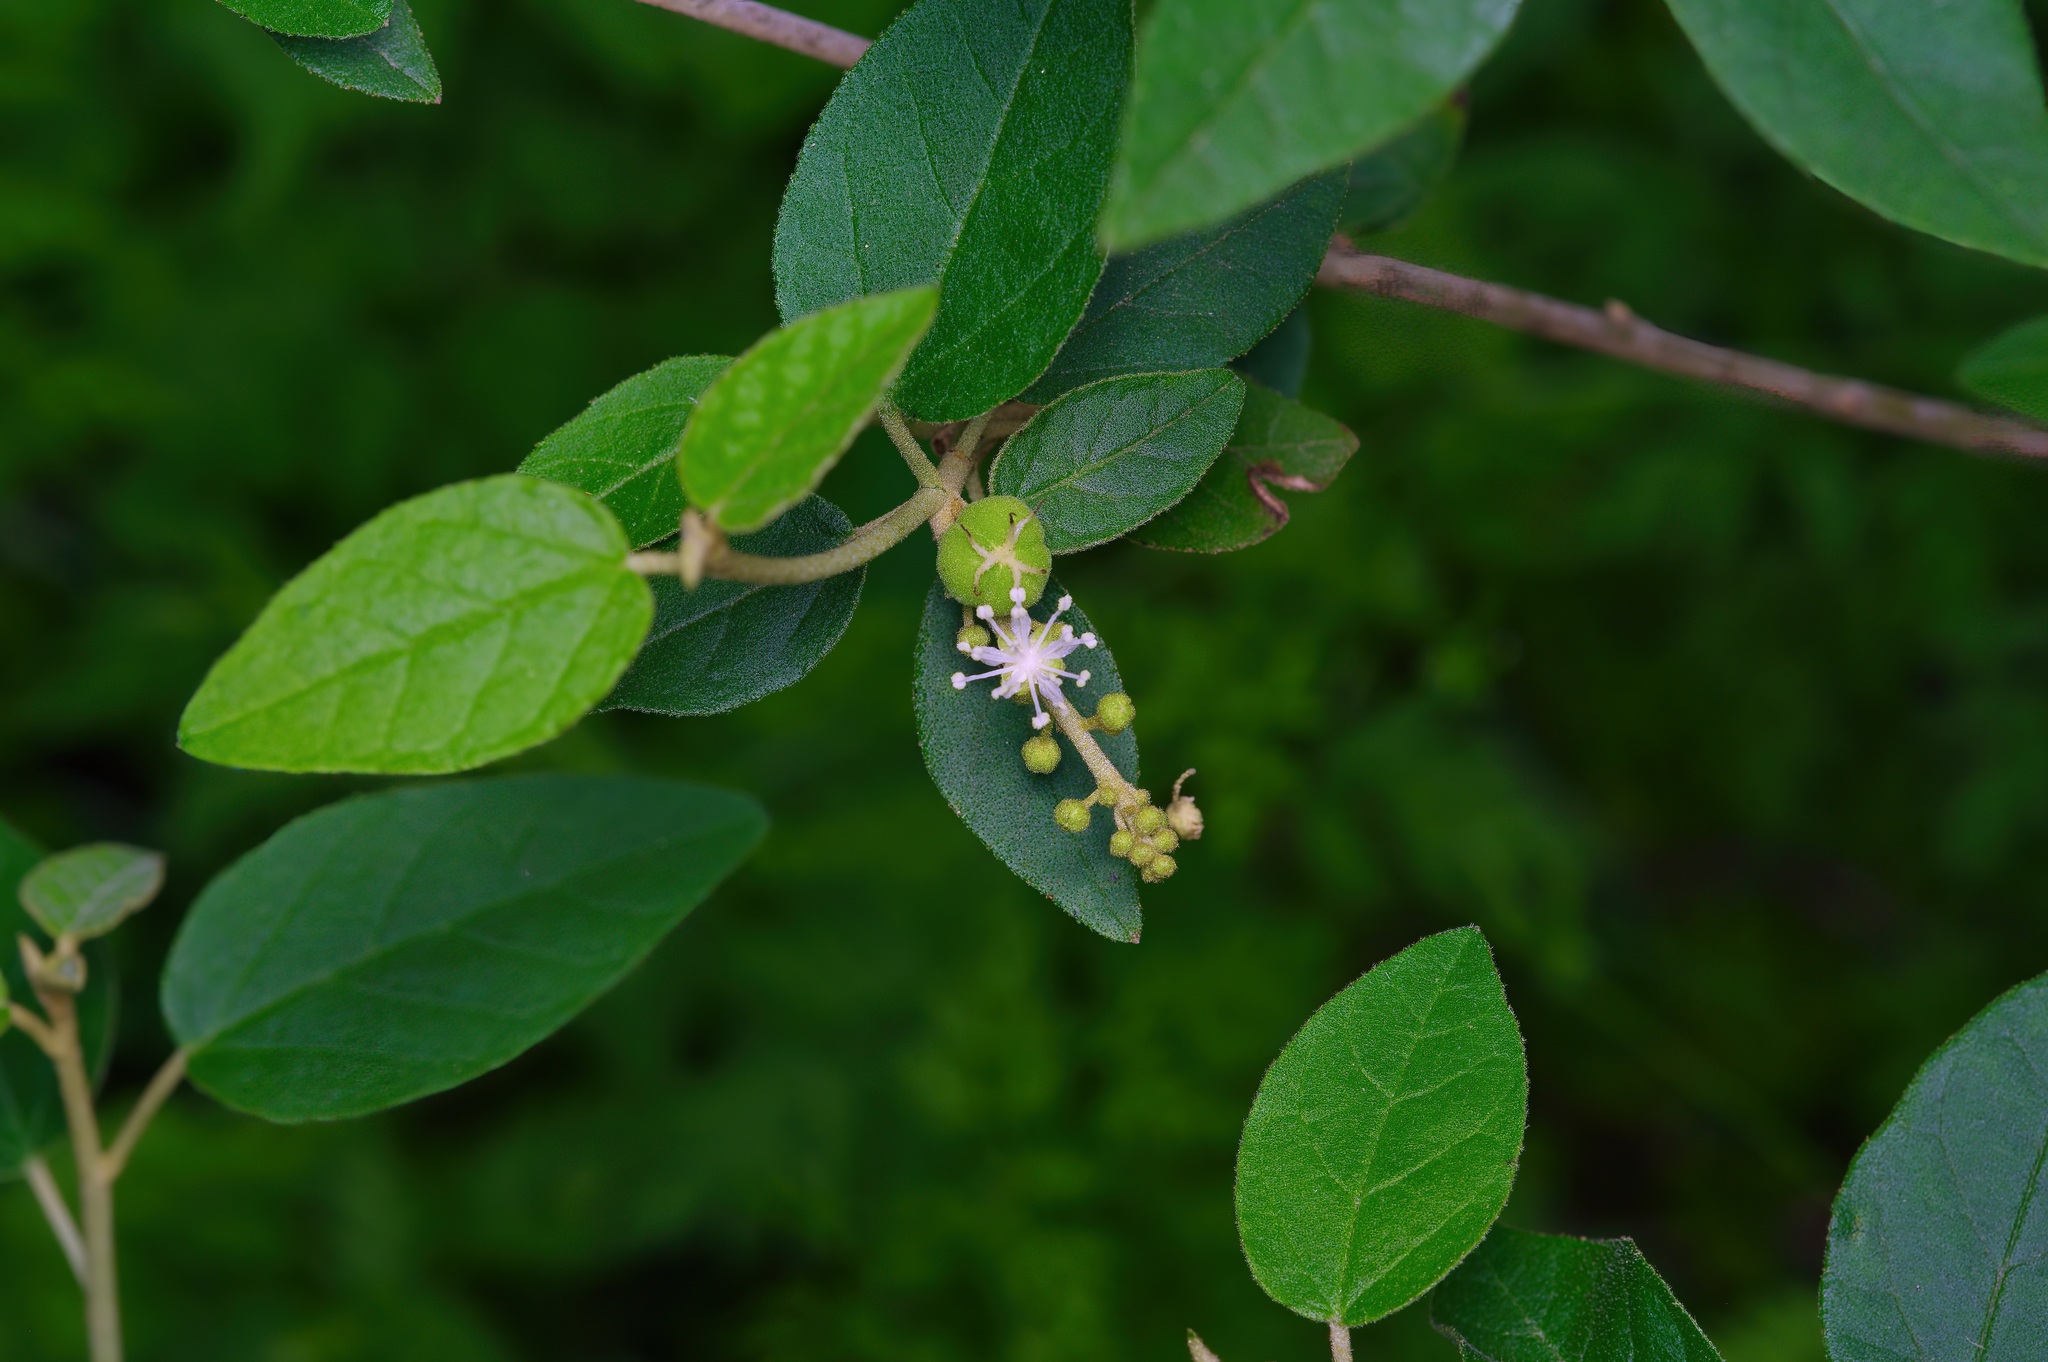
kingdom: Plantae
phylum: Tracheophyta
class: Magnoliopsida
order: Malpighiales
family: Euphorbiaceae
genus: Croton
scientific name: Croton fruticulosus
